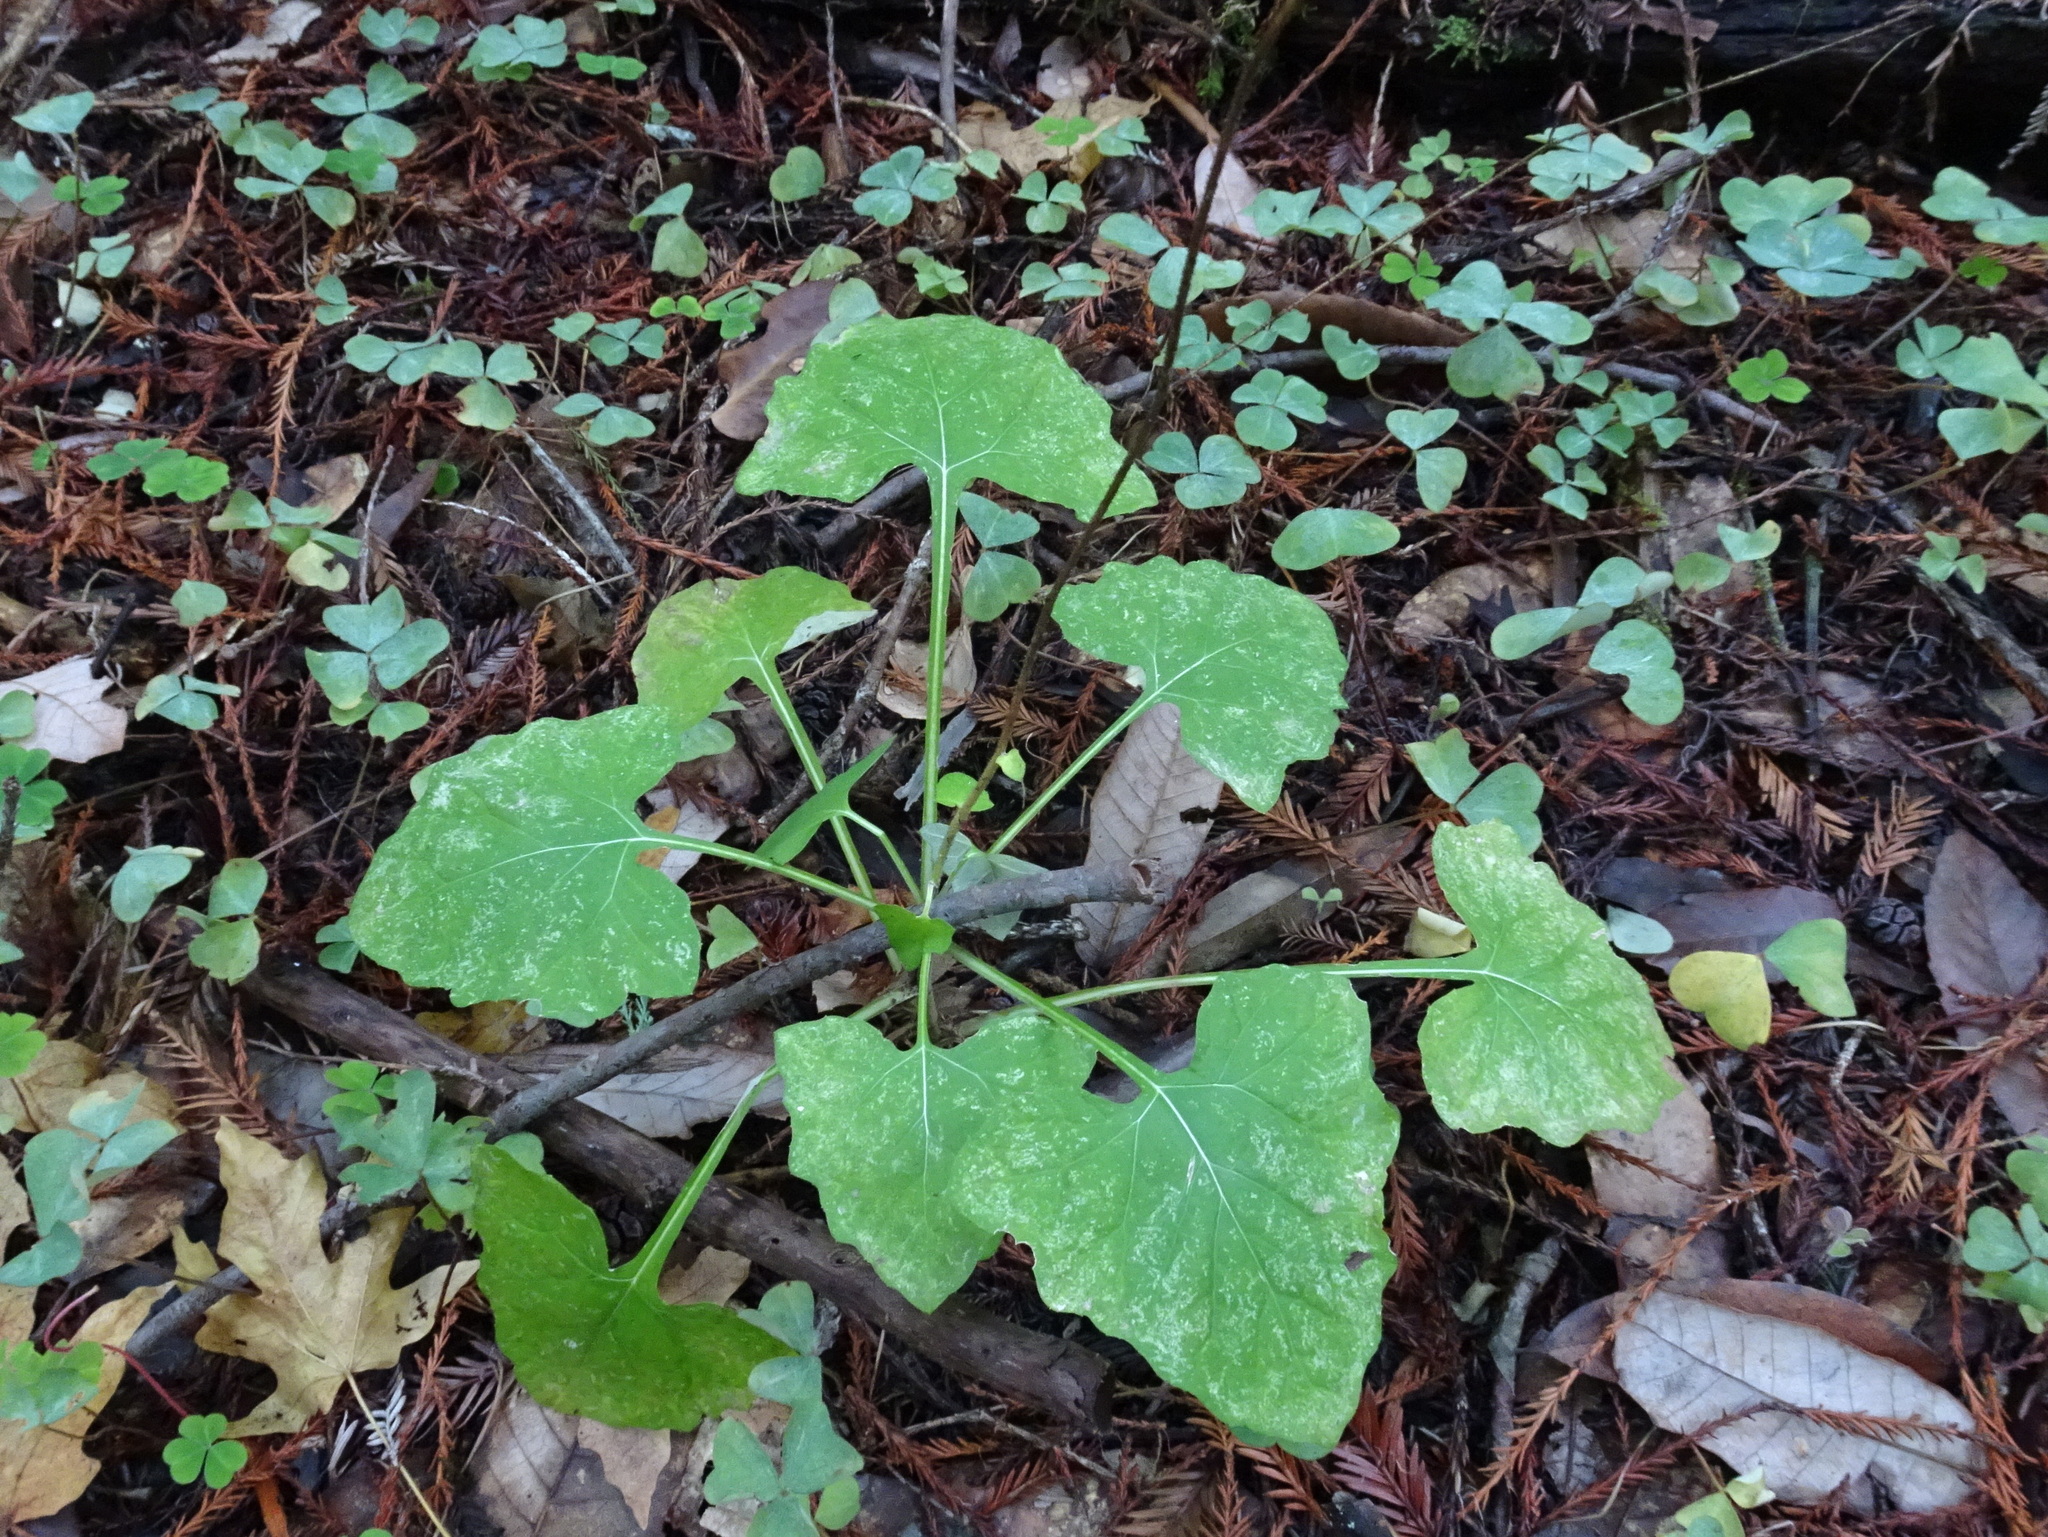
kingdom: Plantae
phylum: Tracheophyta
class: Magnoliopsida
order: Asterales
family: Asteraceae
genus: Adenocaulon
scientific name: Adenocaulon bicolor
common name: Trailplant
